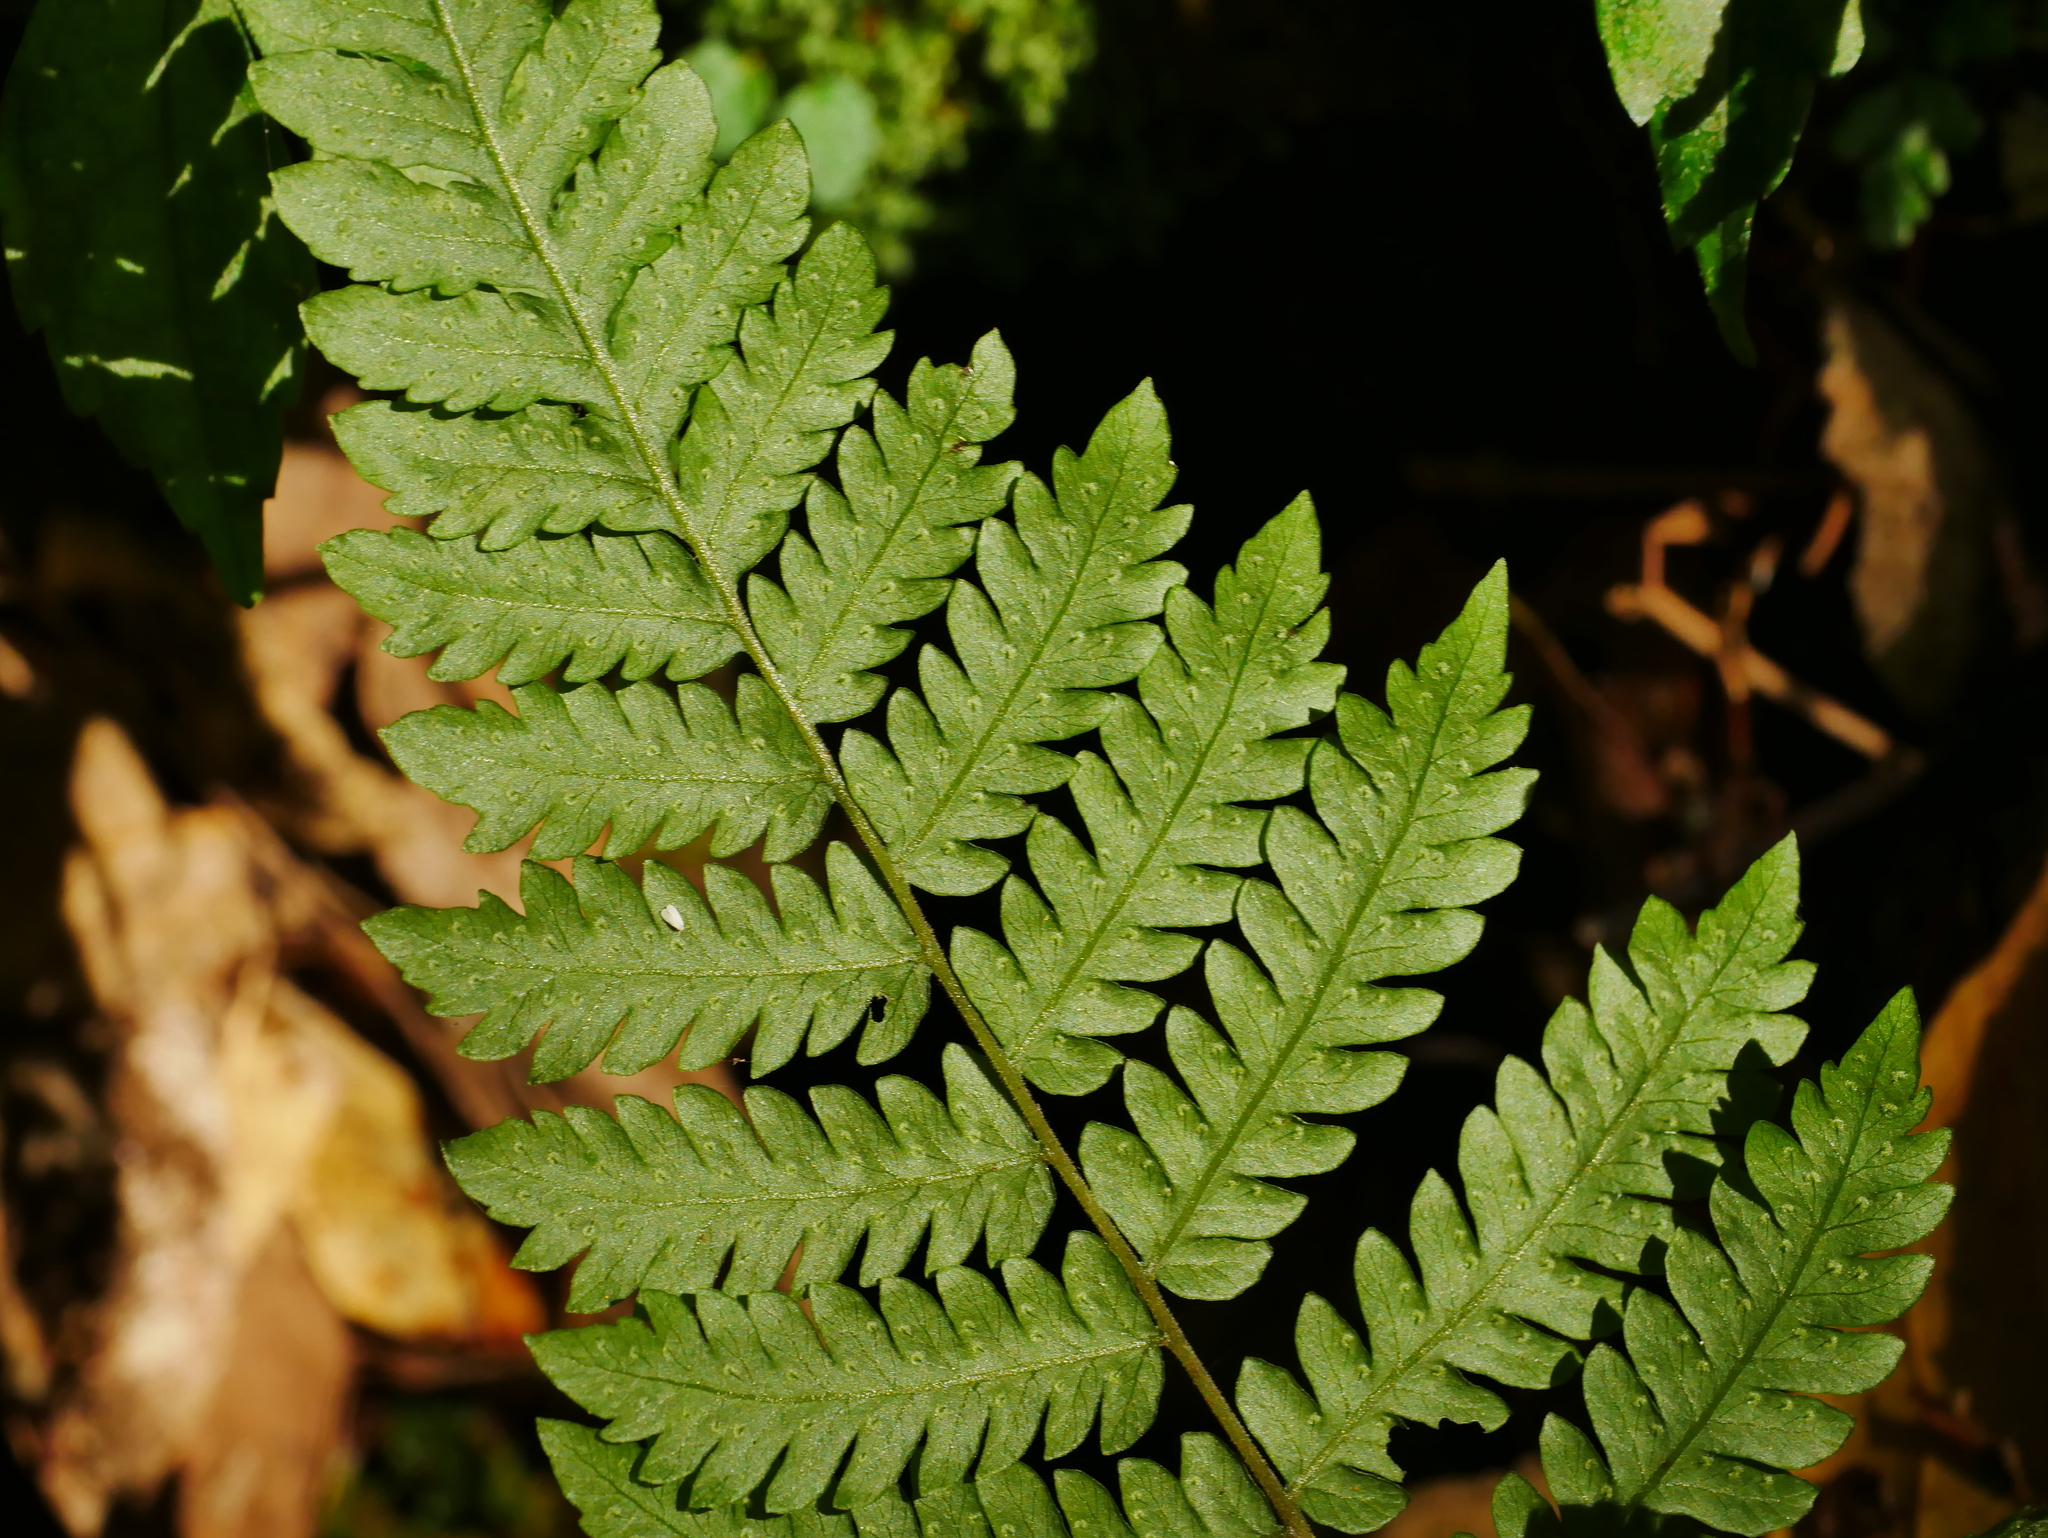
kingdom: Plantae
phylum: Tracheophyta
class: Polypodiopsida
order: Polypodiales
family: Thelypteridaceae
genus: Metathelypteris
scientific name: Metathelypteris laxa
